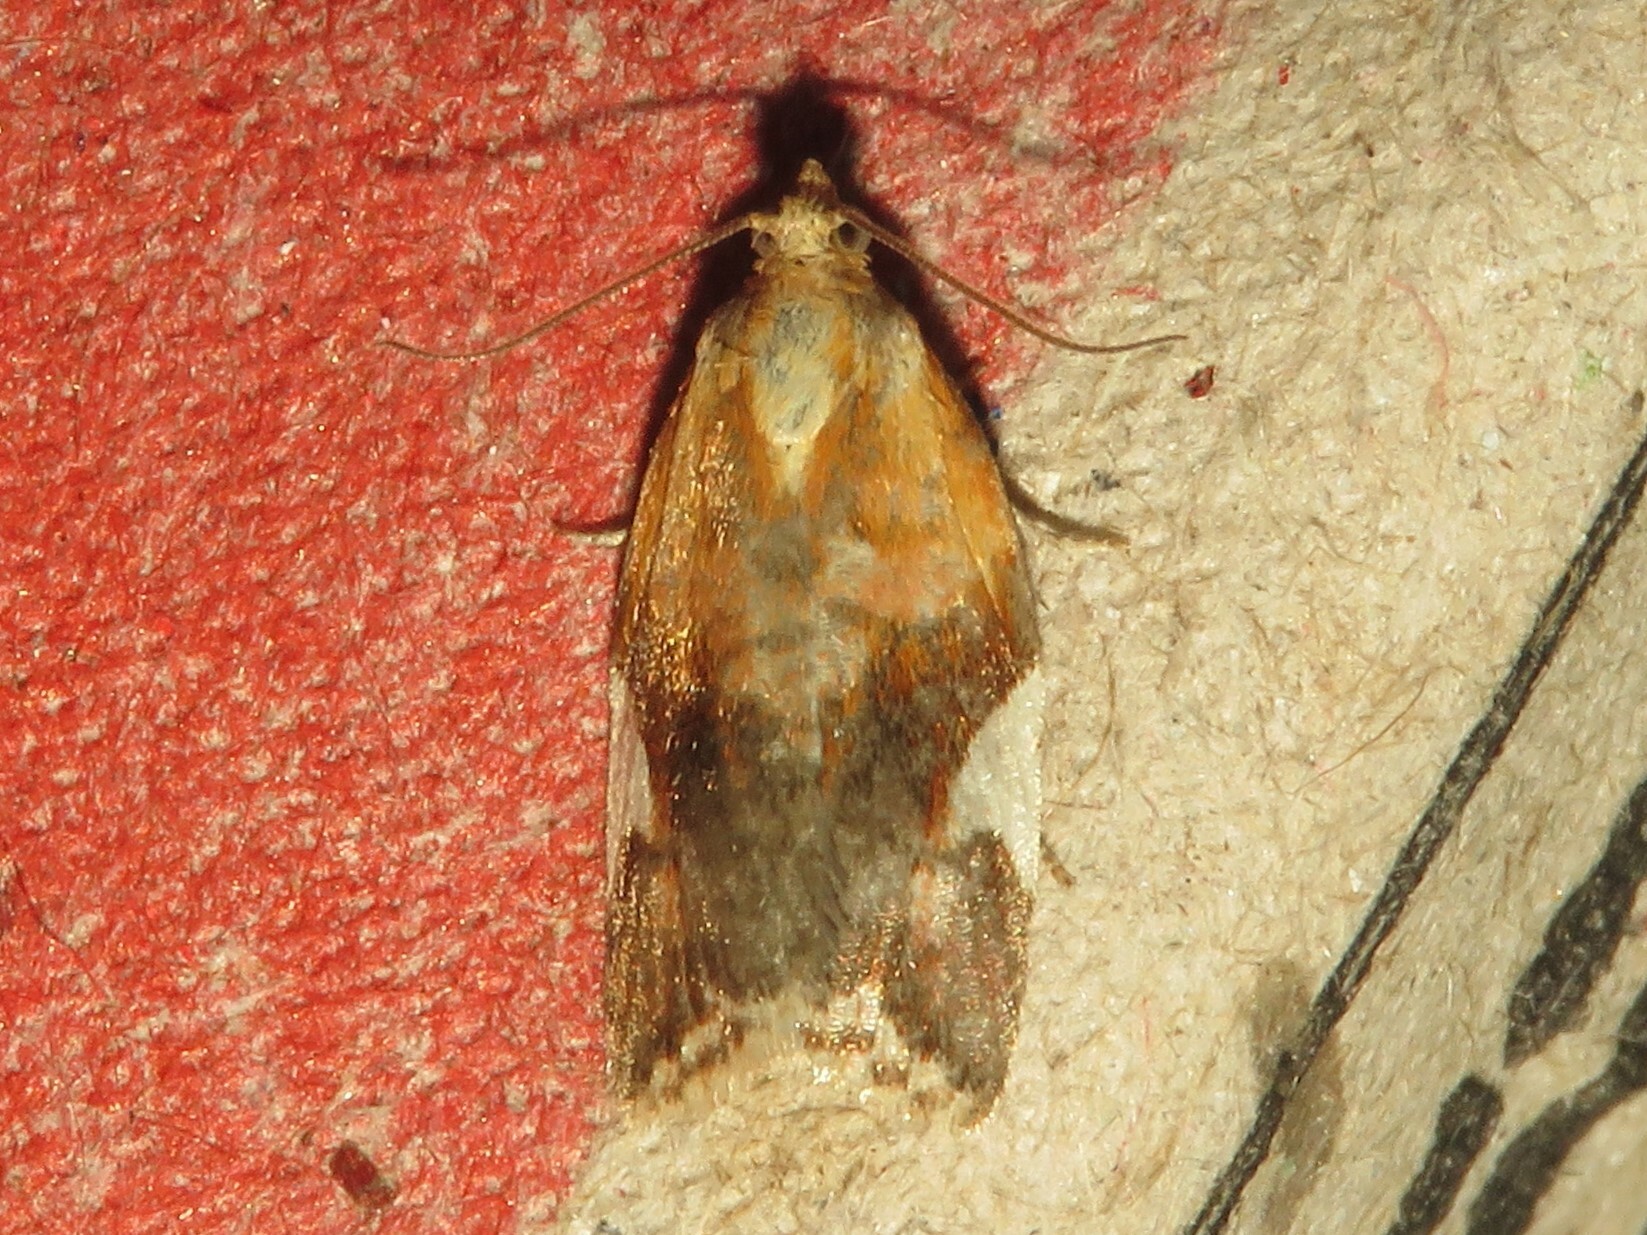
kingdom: Animalia
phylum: Arthropoda
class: Insecta
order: Lepidoptera
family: Tortricidae
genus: Clepsis
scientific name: Clepsis persicana
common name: White triangle tortrix
